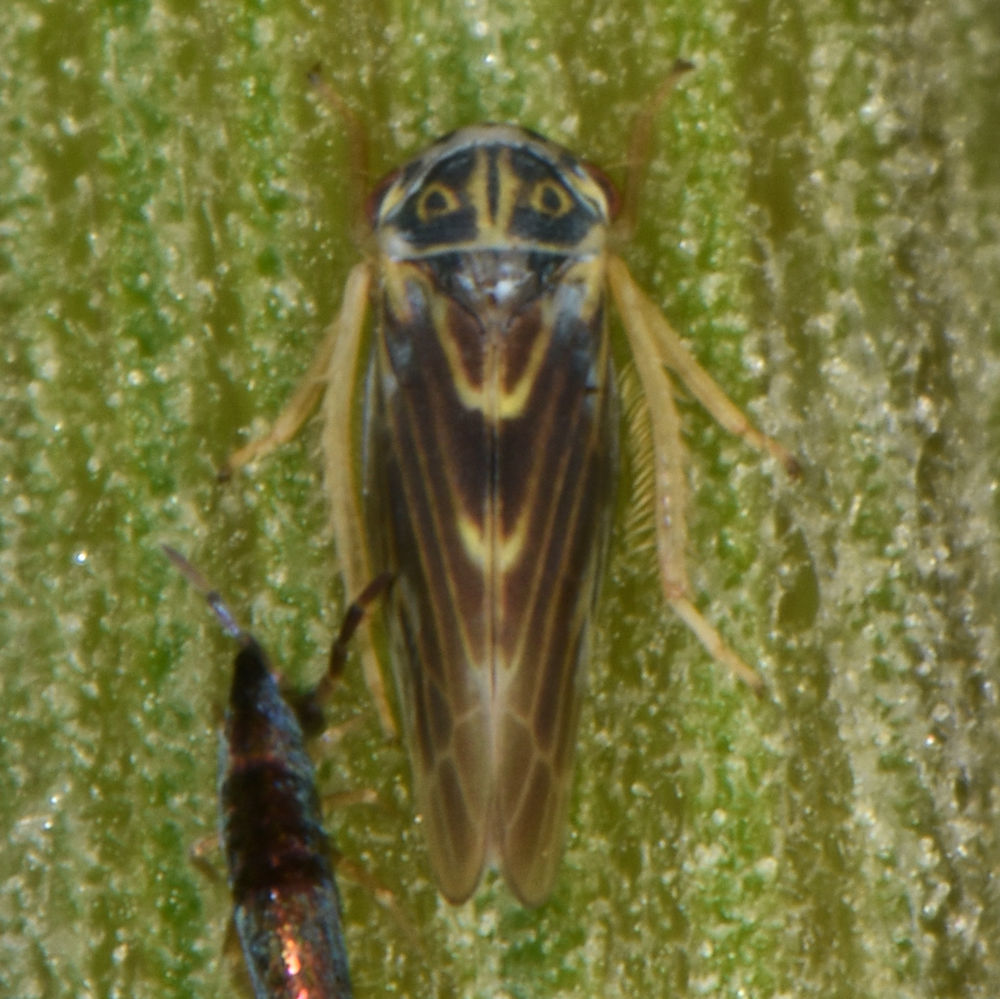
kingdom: Animalia
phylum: Arthropoda
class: Insecta
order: Hemiptera
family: Cicadellidae
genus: Agalliopsis
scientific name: Agalliopsis novella
